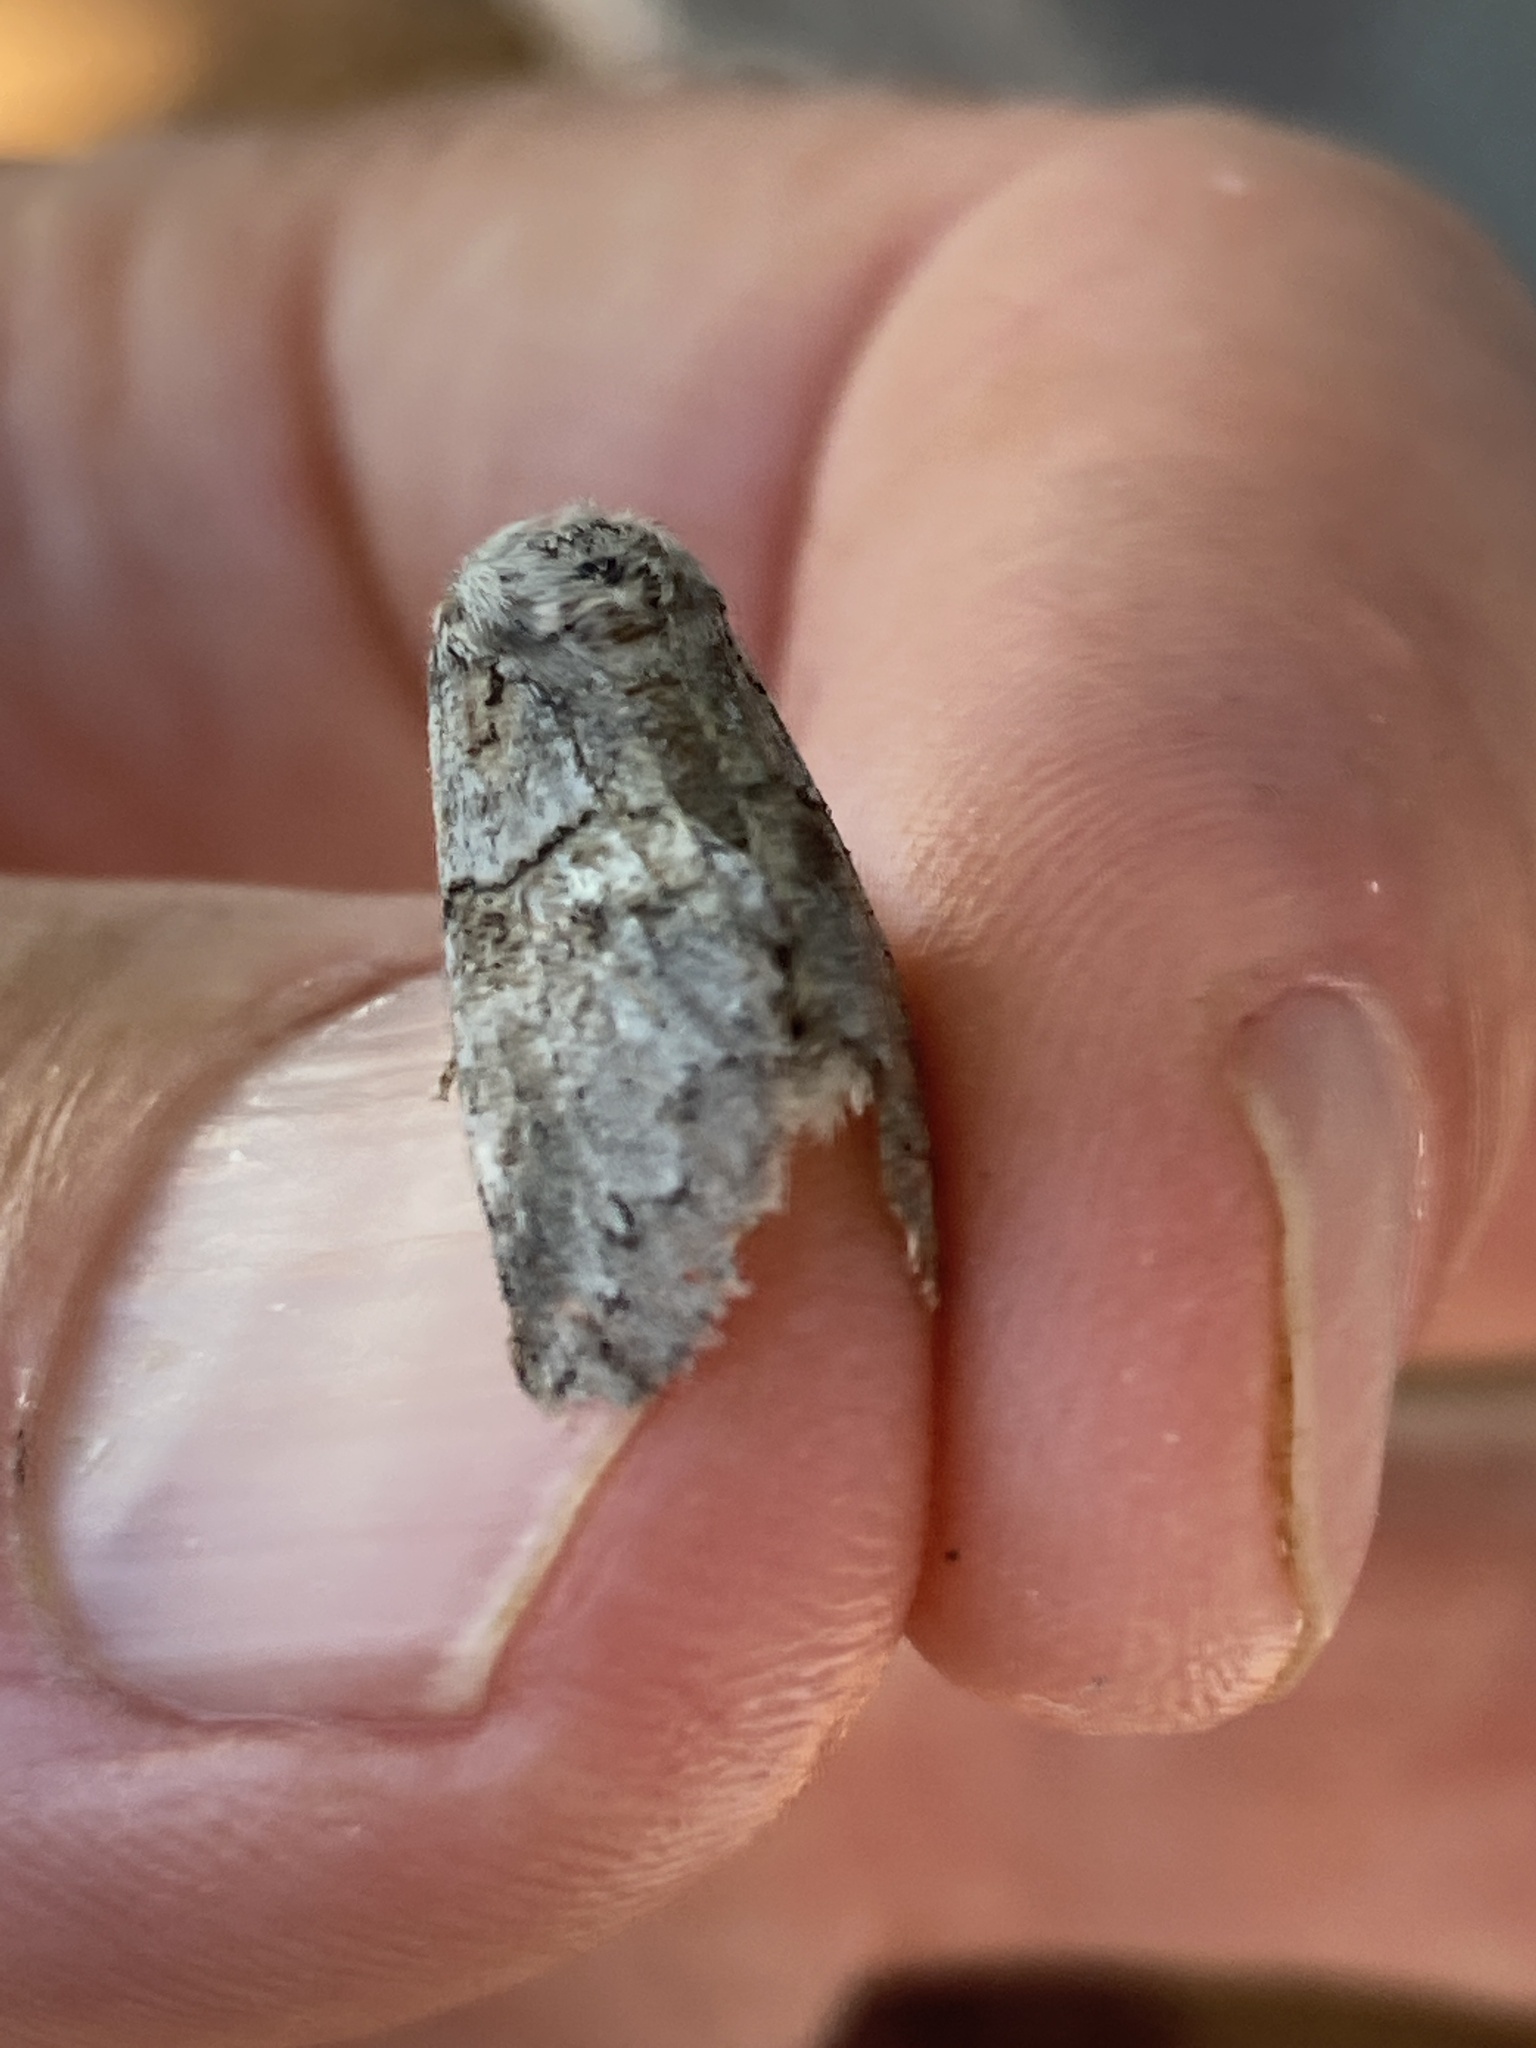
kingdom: Animalia
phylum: Arthropoda
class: Insecta
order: Lepidoptera
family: Notodontidae
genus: Gluphisia
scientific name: Gluphisia septentrionis
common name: Common gluphisia
